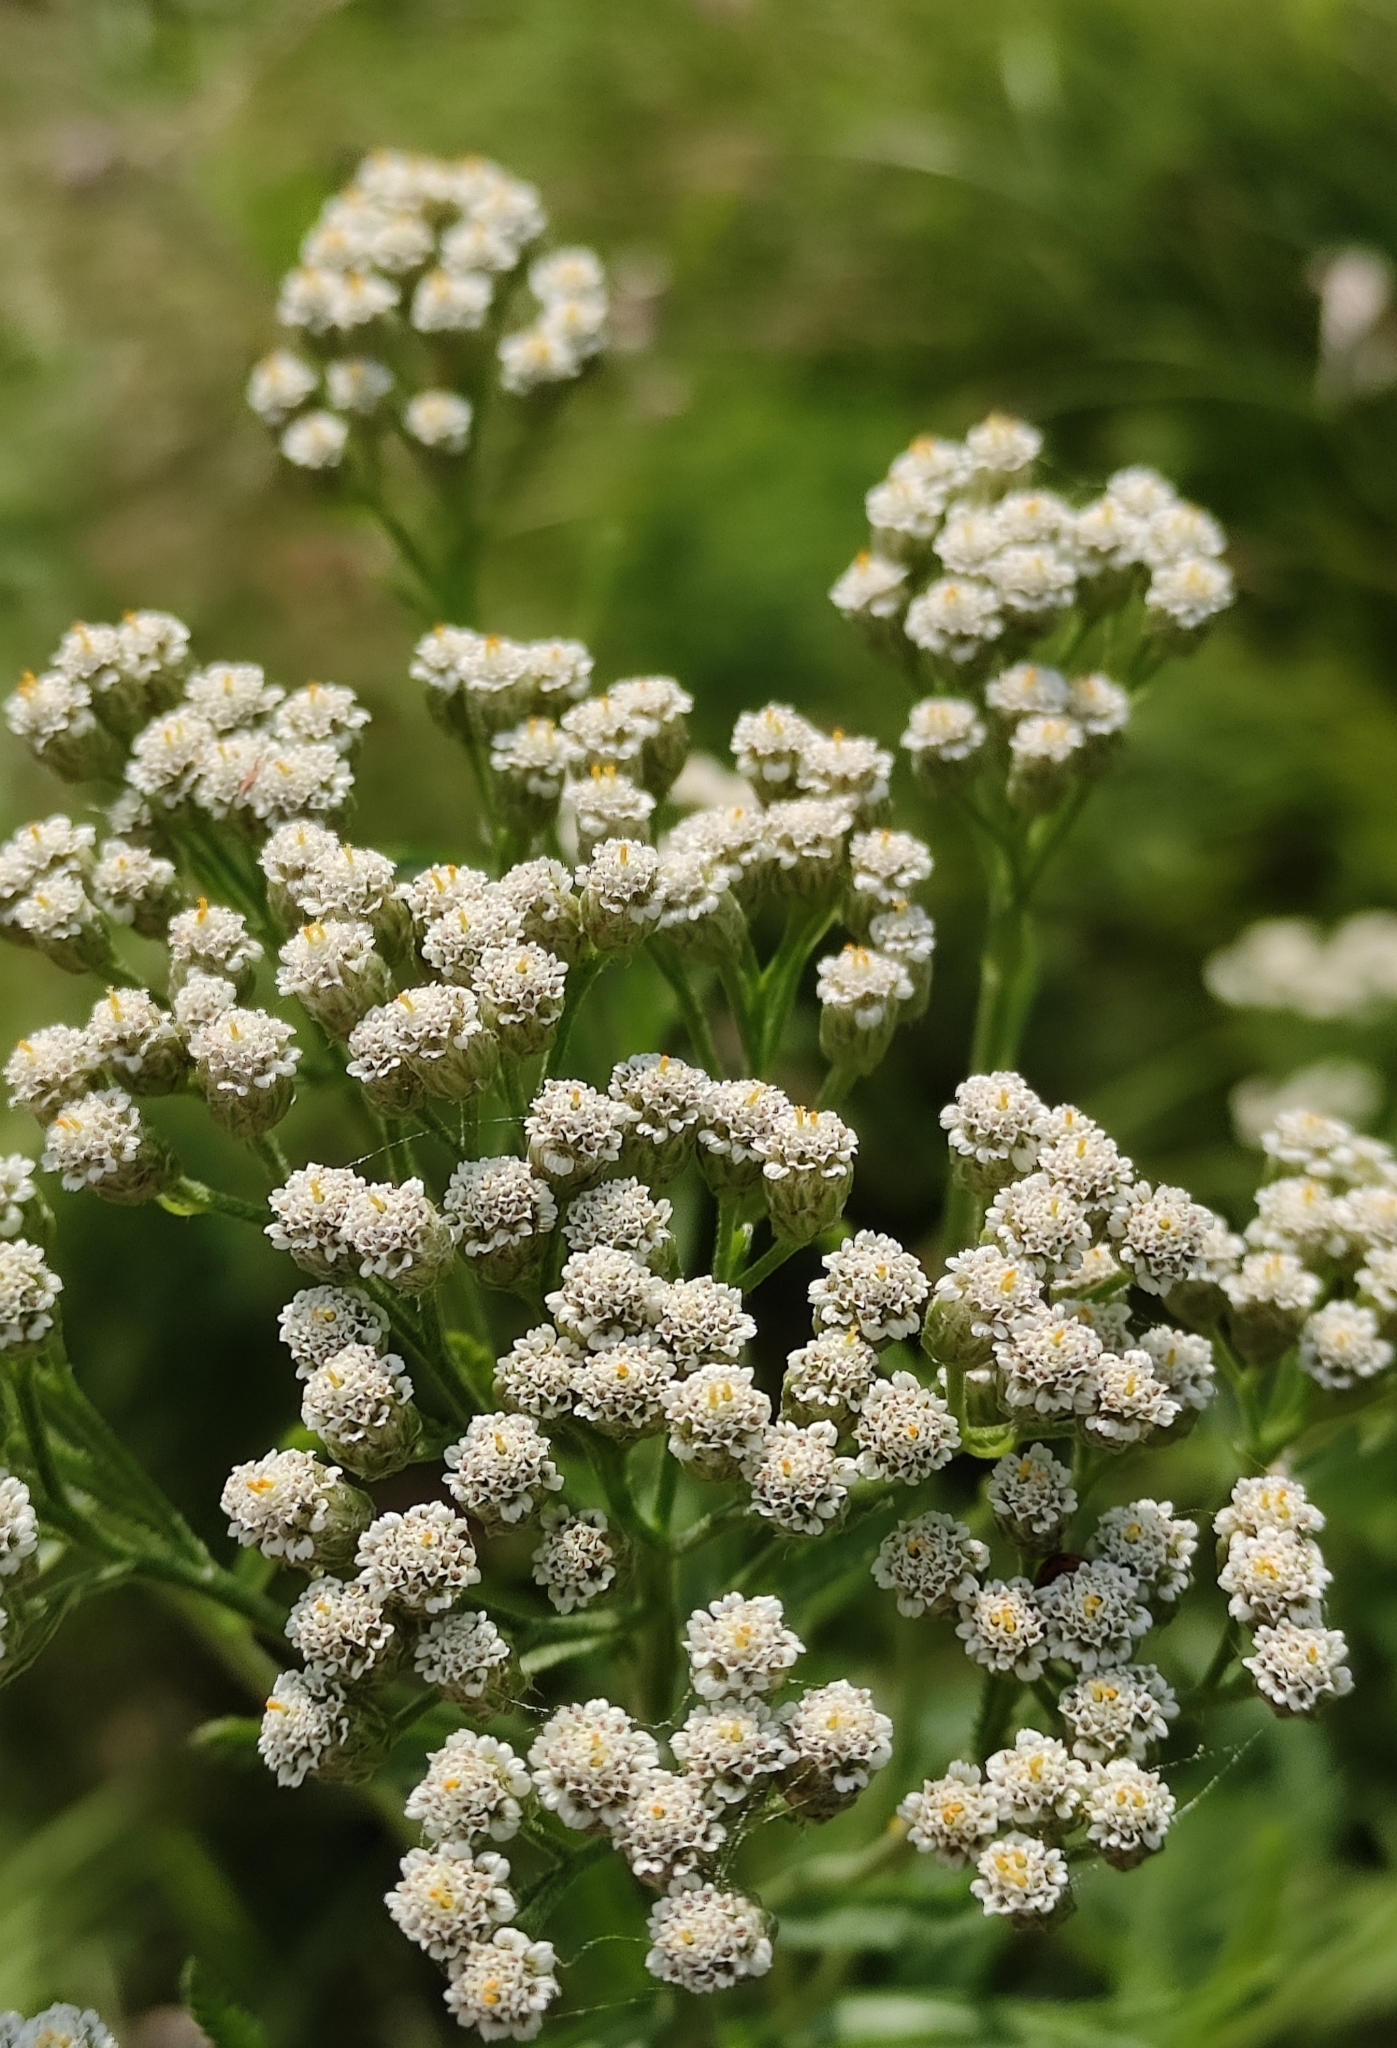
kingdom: Plantae
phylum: Tracheophyta
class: Magnoliopsida
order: Asterales
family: Asteraceae
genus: Achillea
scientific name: Achillea alpina
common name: Siberian yarrow
